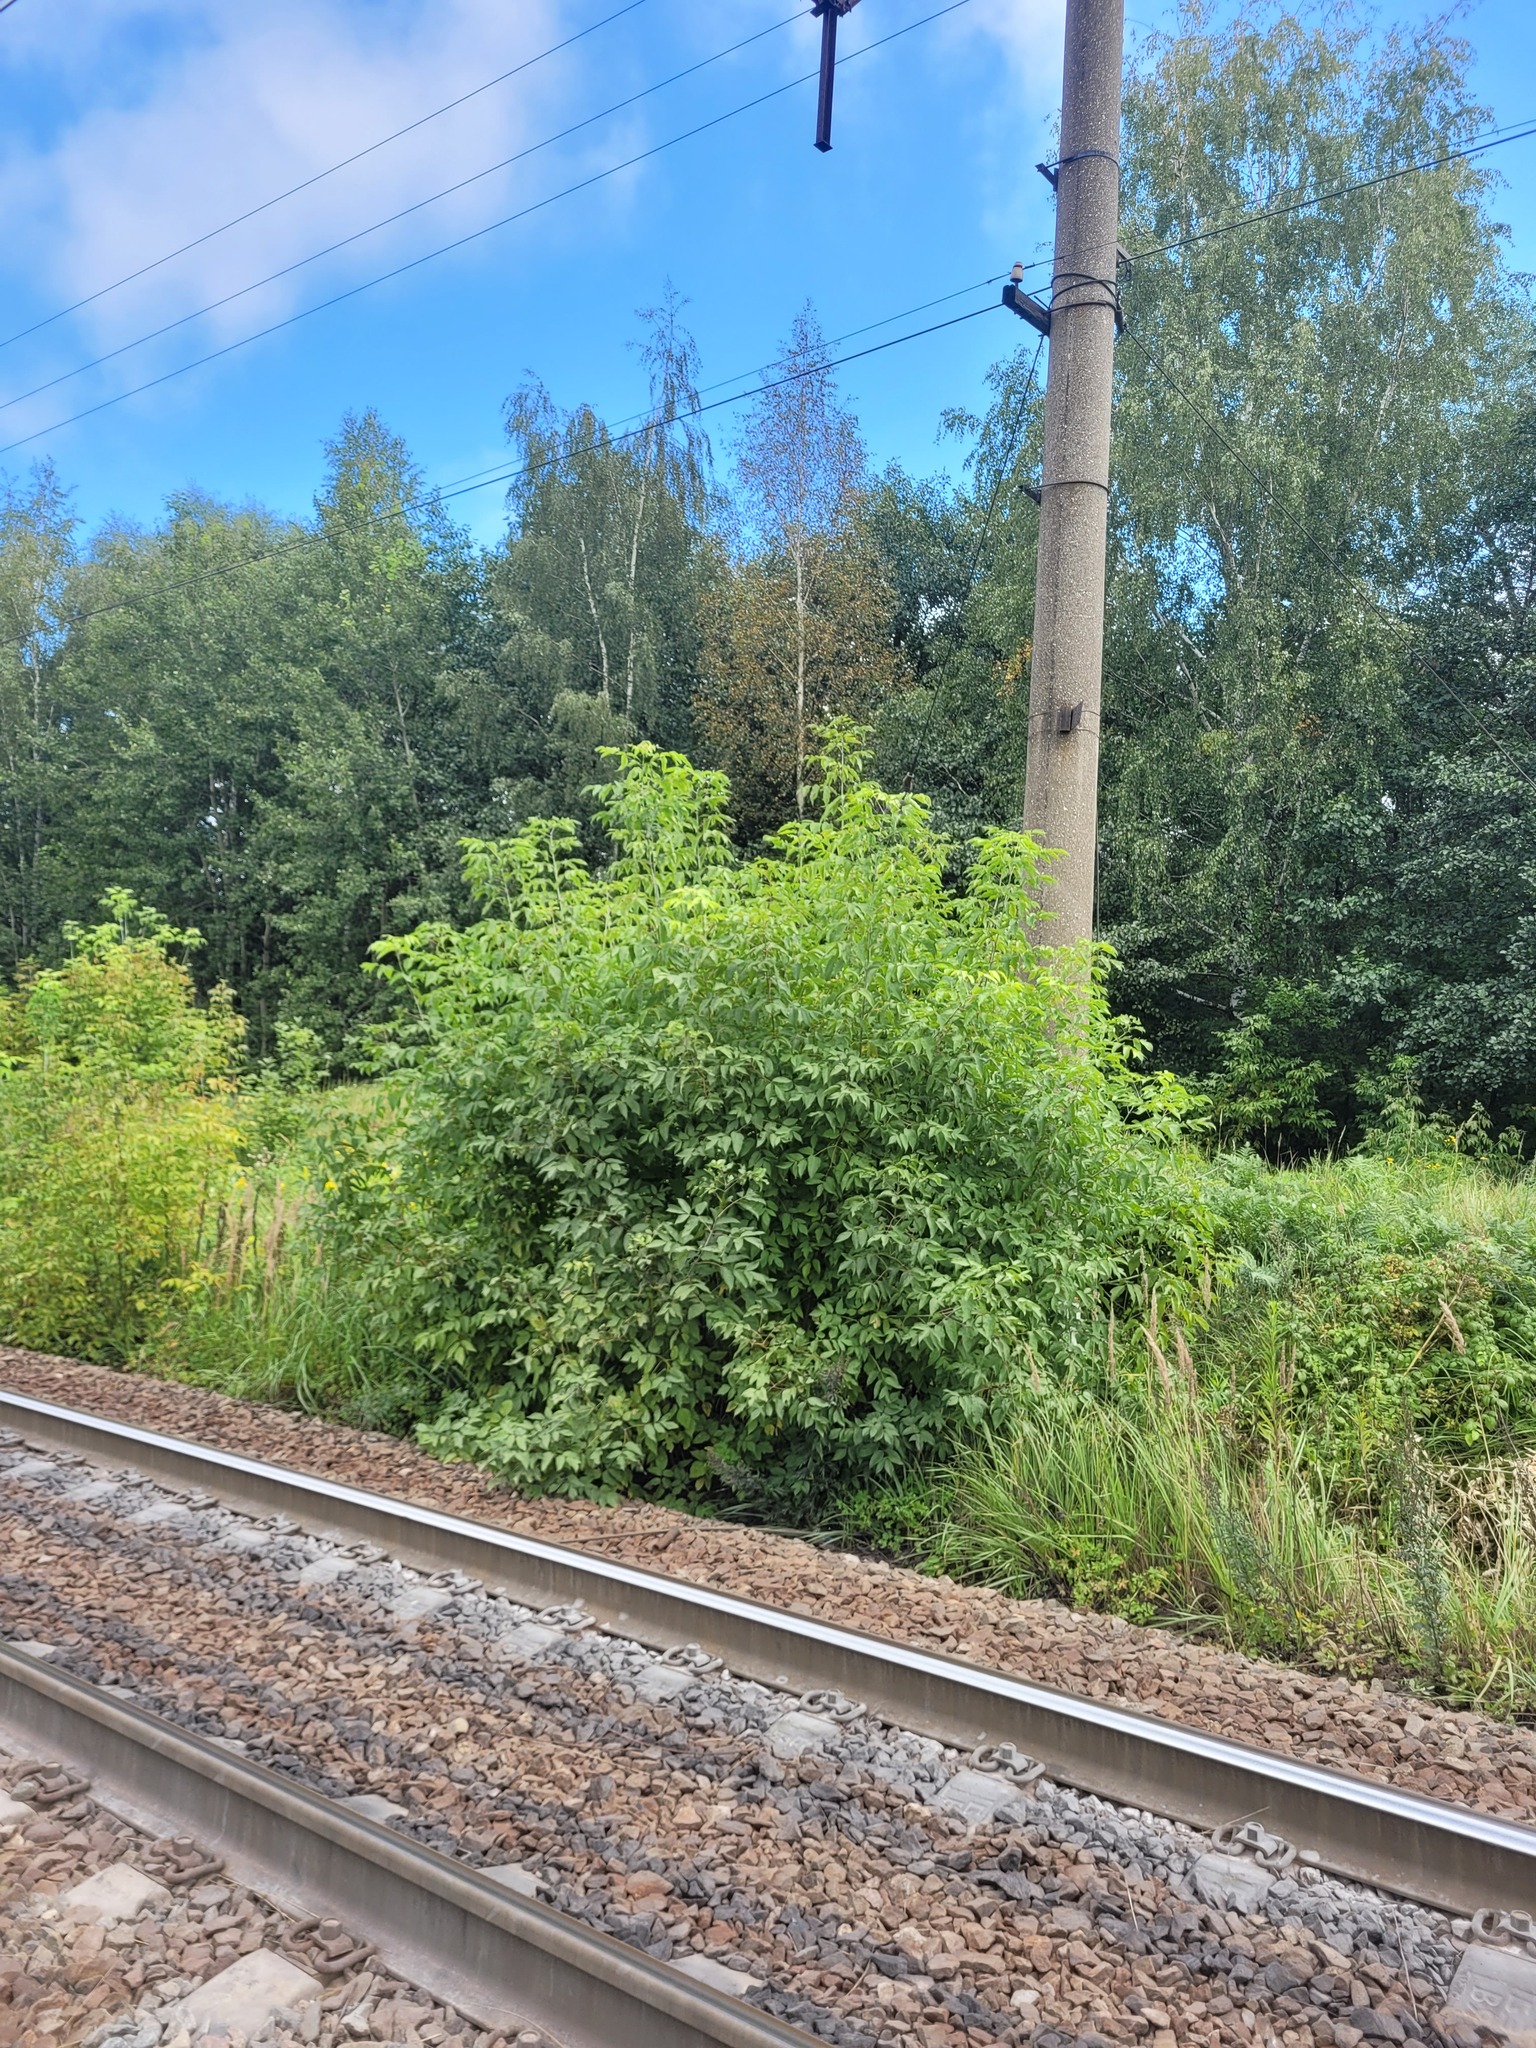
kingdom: Plantae
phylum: Tracheophyta
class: Magnoliopsida
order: Sapindales
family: Sapindaceae
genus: Acer
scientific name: Acer negundo
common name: Ashleaf maple
